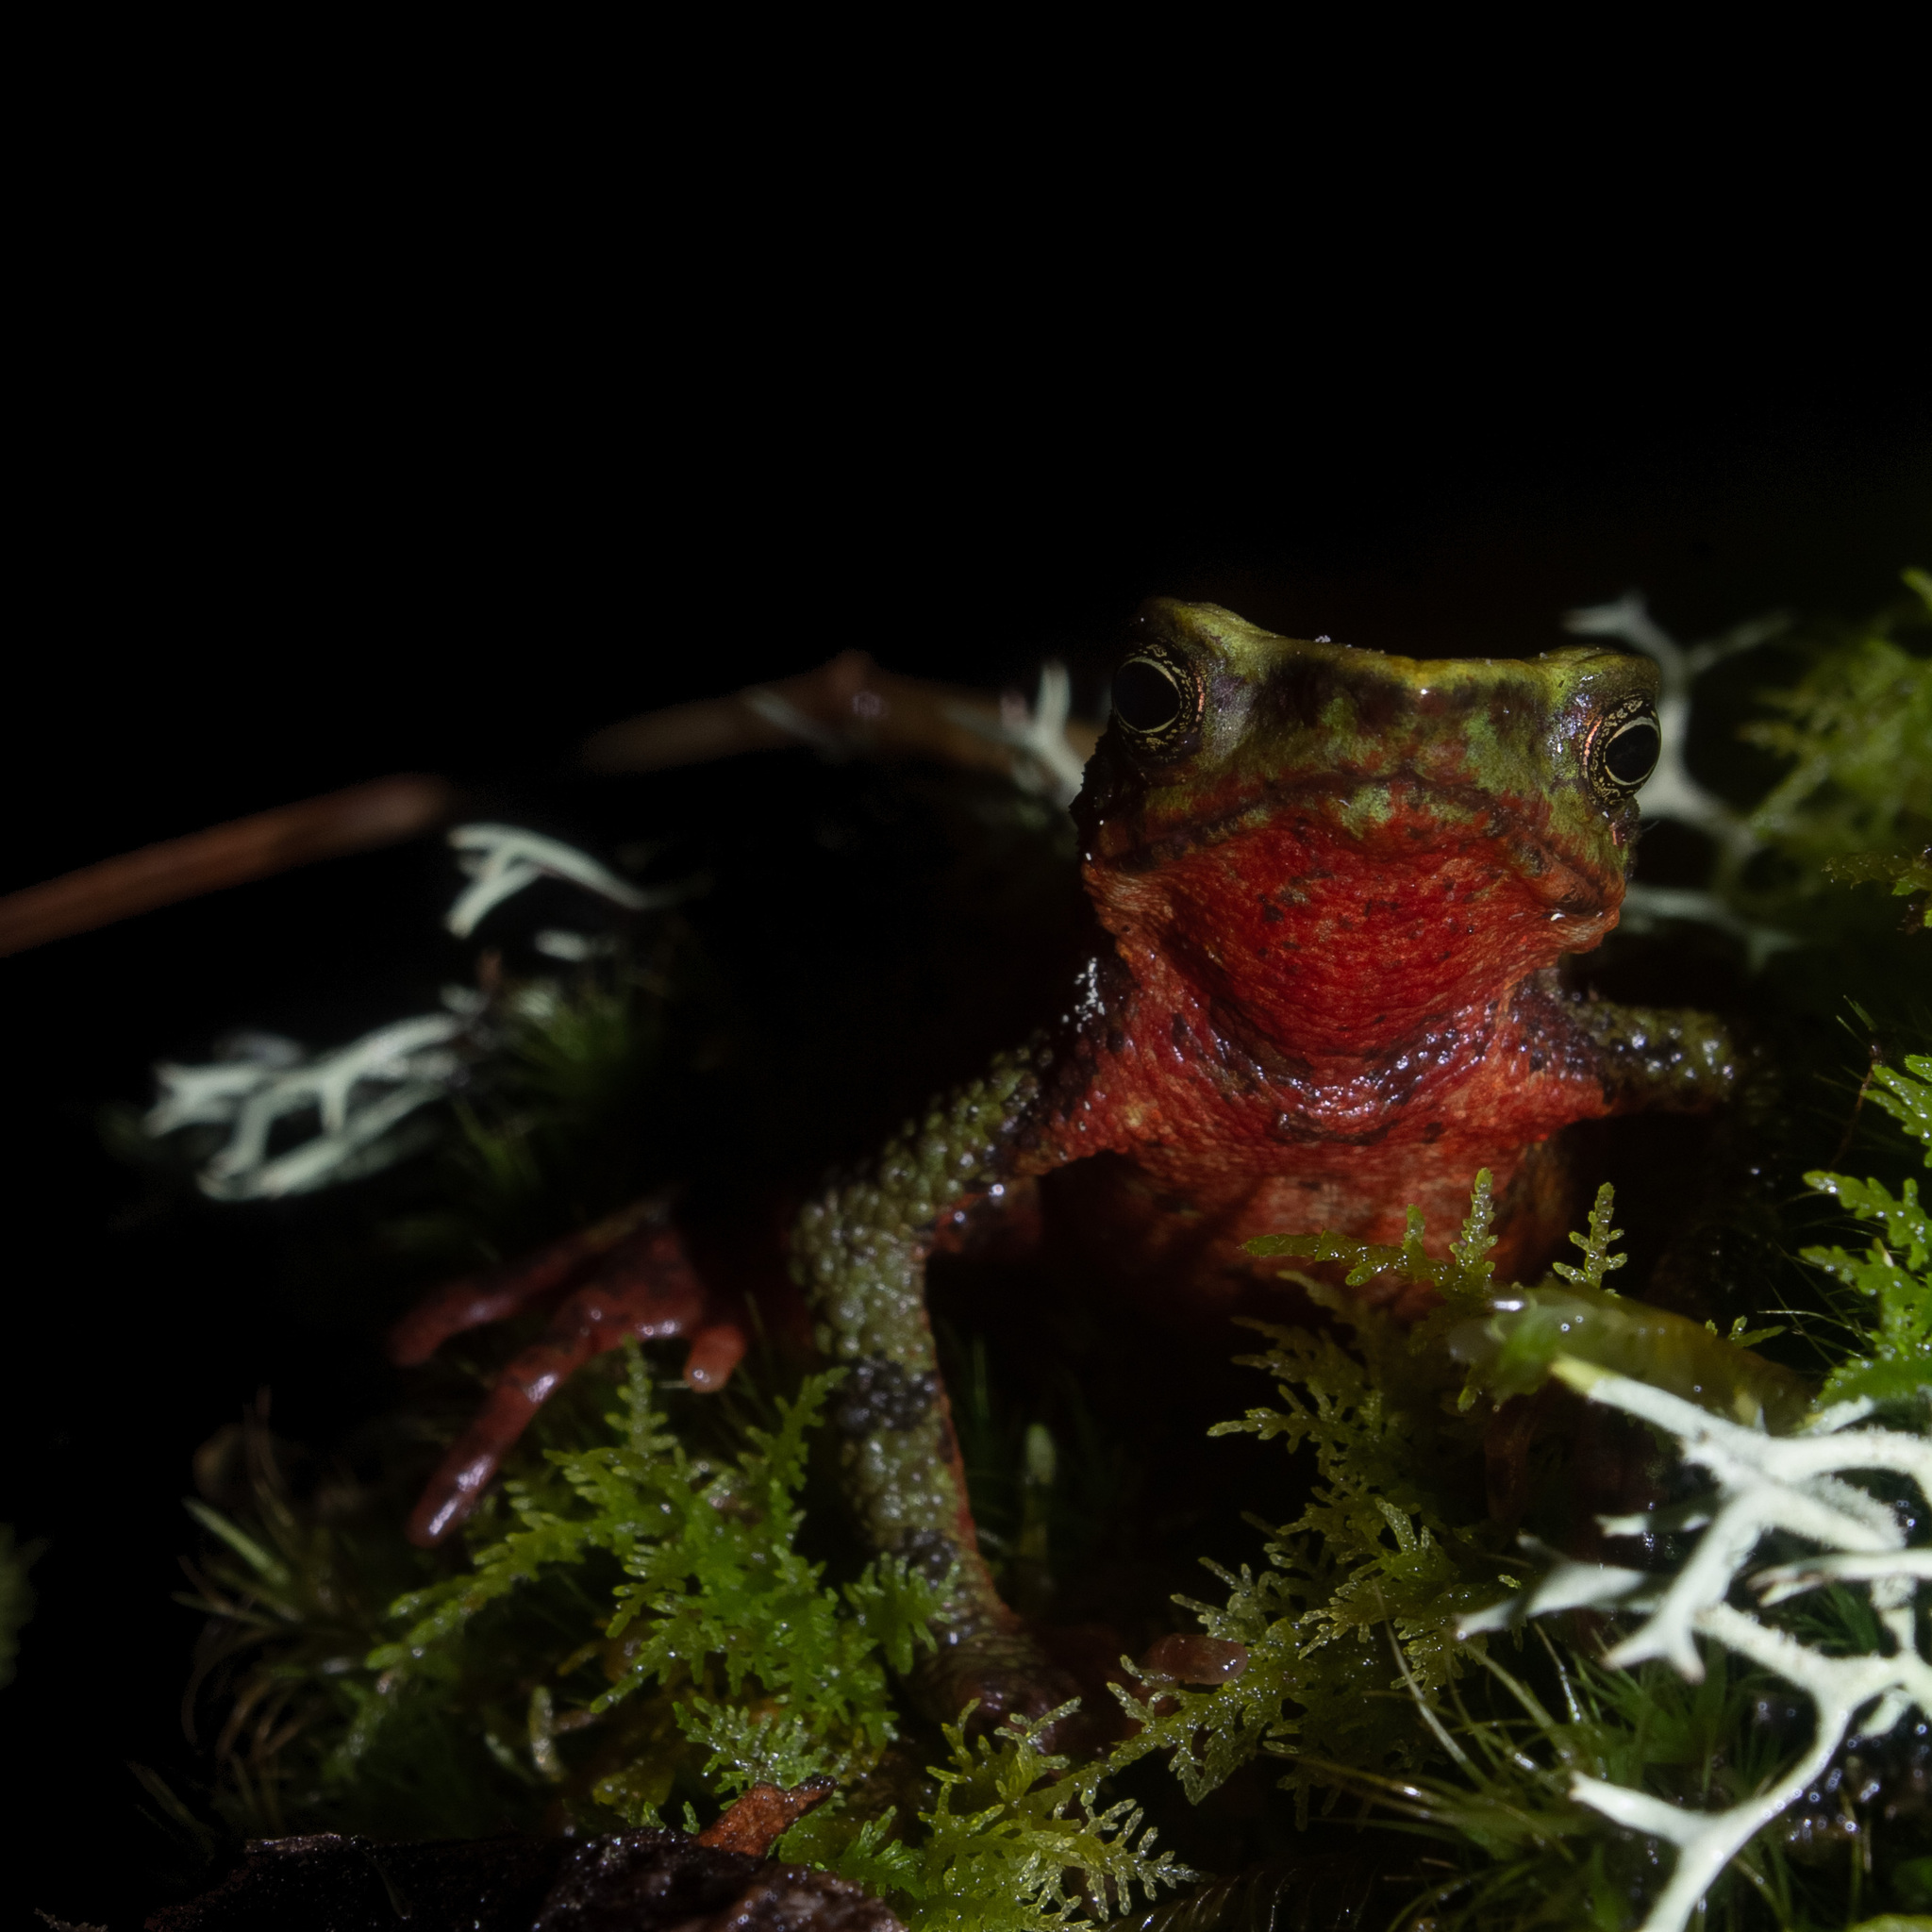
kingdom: Animalia
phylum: Chordata
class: Amphibia
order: Anura
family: Bufonidae
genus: Atelopus
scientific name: Atelopus laetissimus
